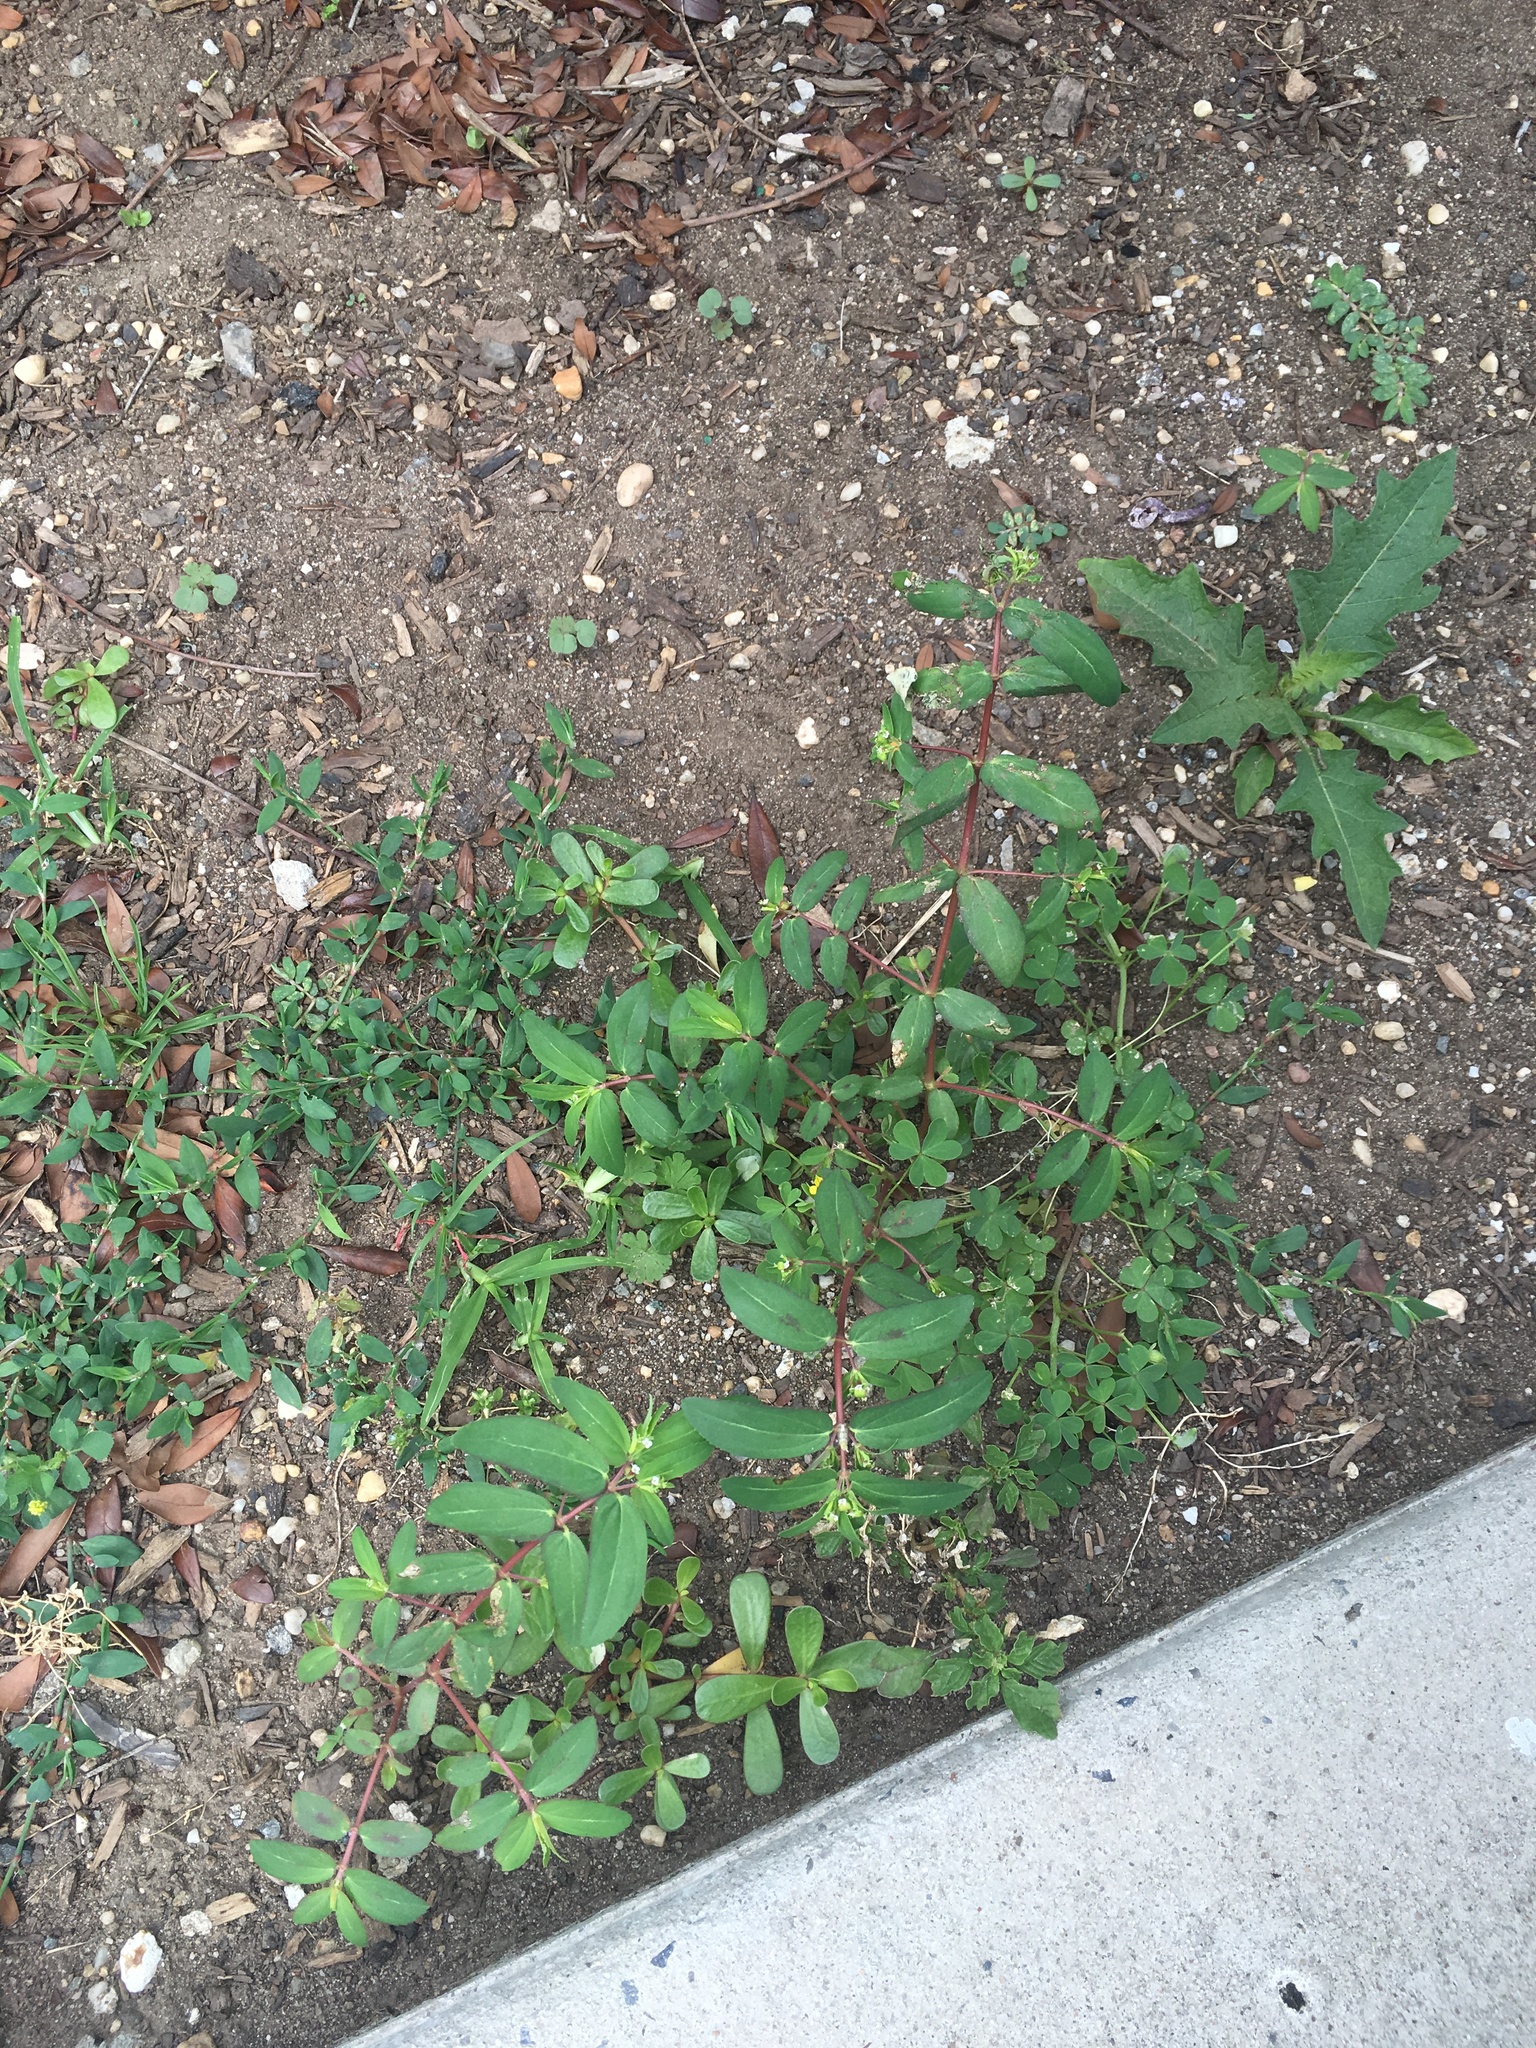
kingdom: Plantae
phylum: Tracheophyta
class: Magnoliopsida
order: Malpighiales
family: Euphorbiaceae
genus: Euphorbia
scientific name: Euphorbia nutans
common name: Eyebane
